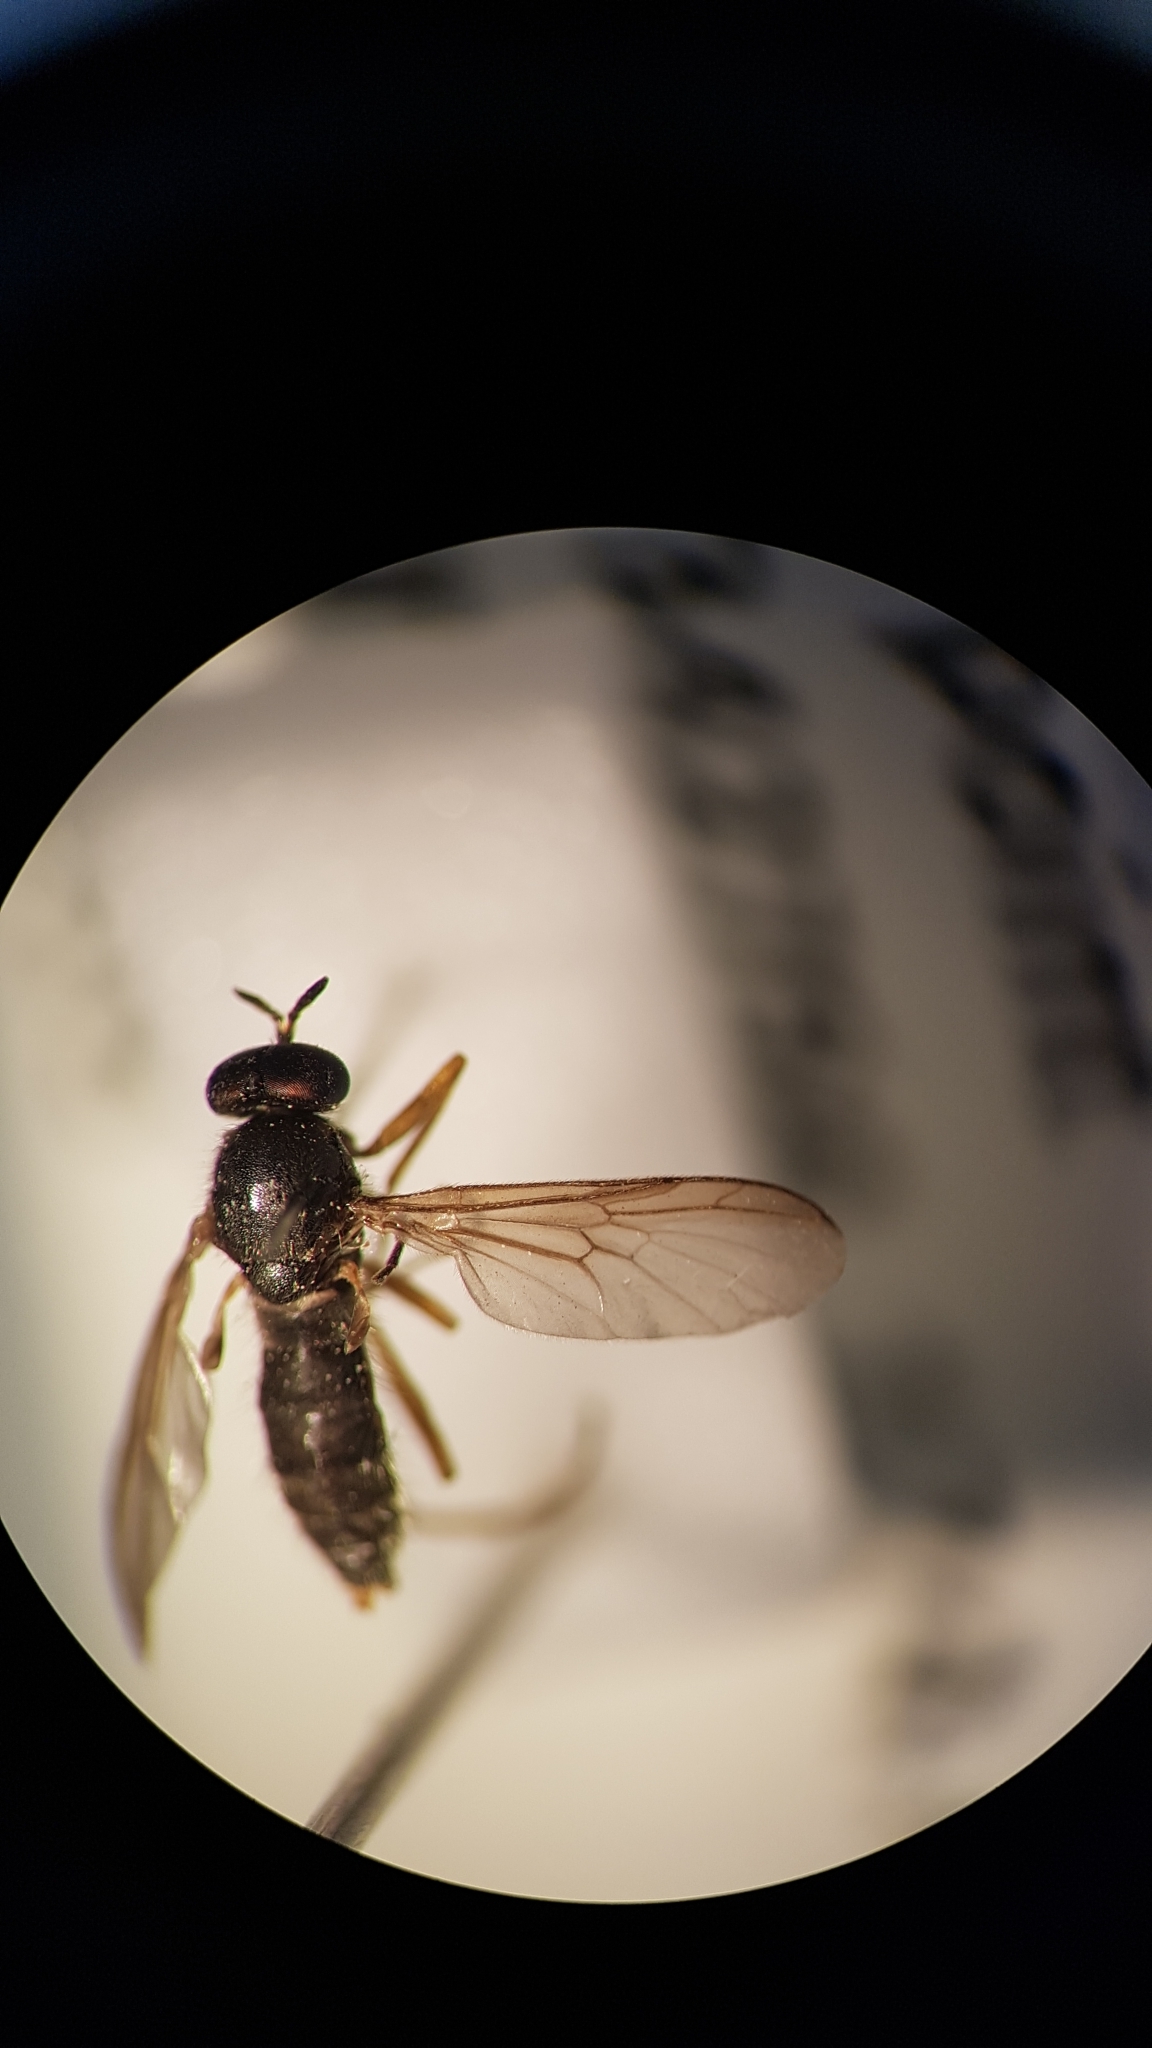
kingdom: Animalia
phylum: Arthropoda
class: Insecta
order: Diptera
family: Stratiomyidae
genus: Inopus
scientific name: Inopus rubriceps
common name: Soldier fly
